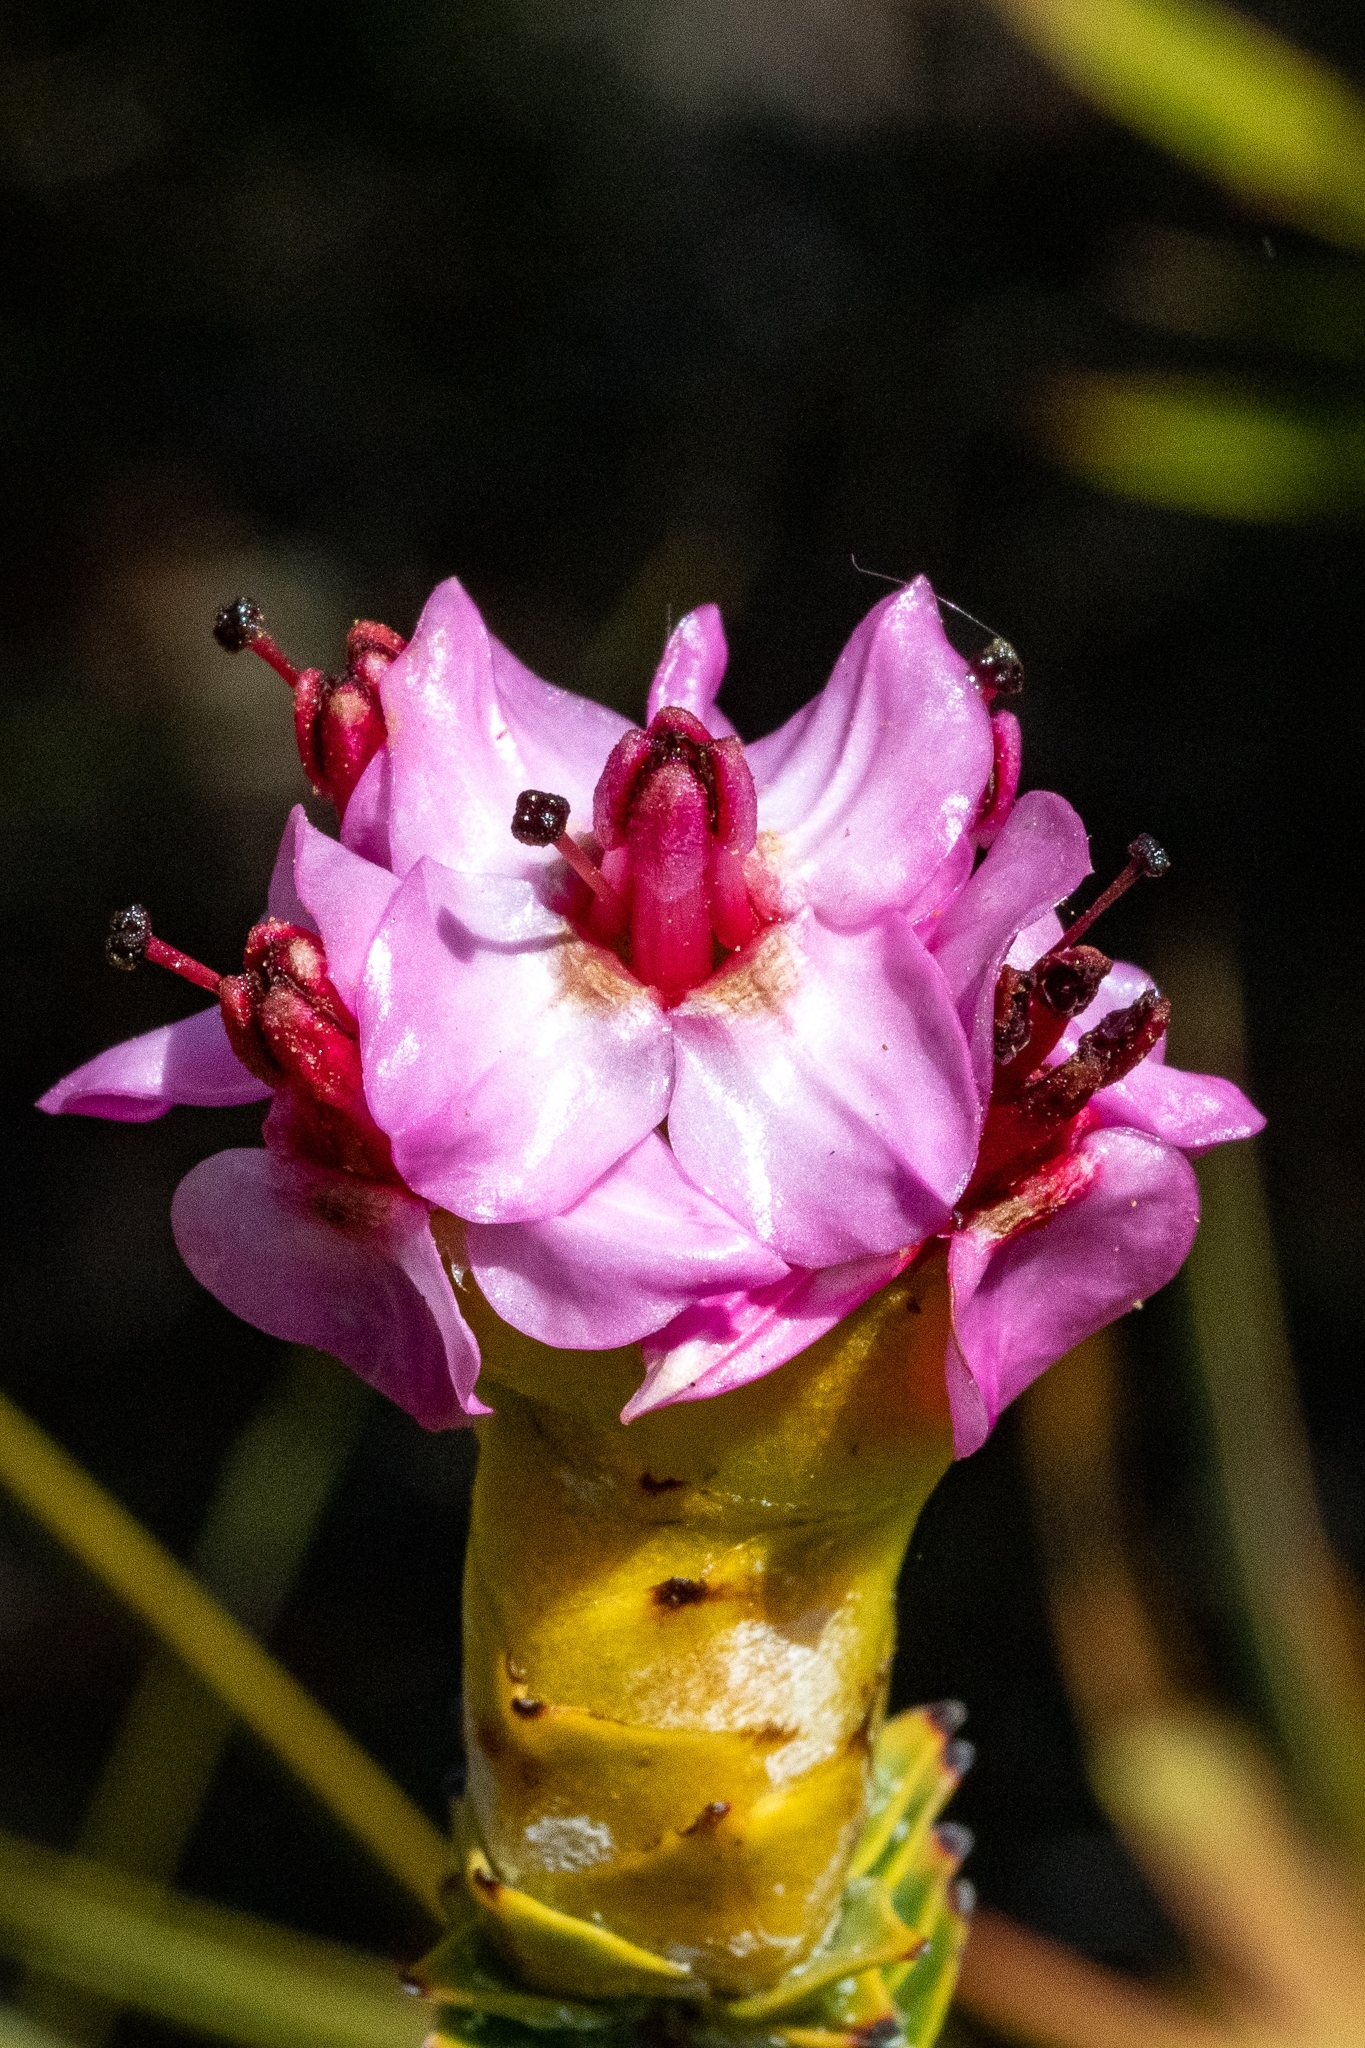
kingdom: Plantae
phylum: Tracheophyta
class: Magnoliopsida
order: Myrtales
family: Penaeaceae
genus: Saltera
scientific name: Saltera sarcocolla
